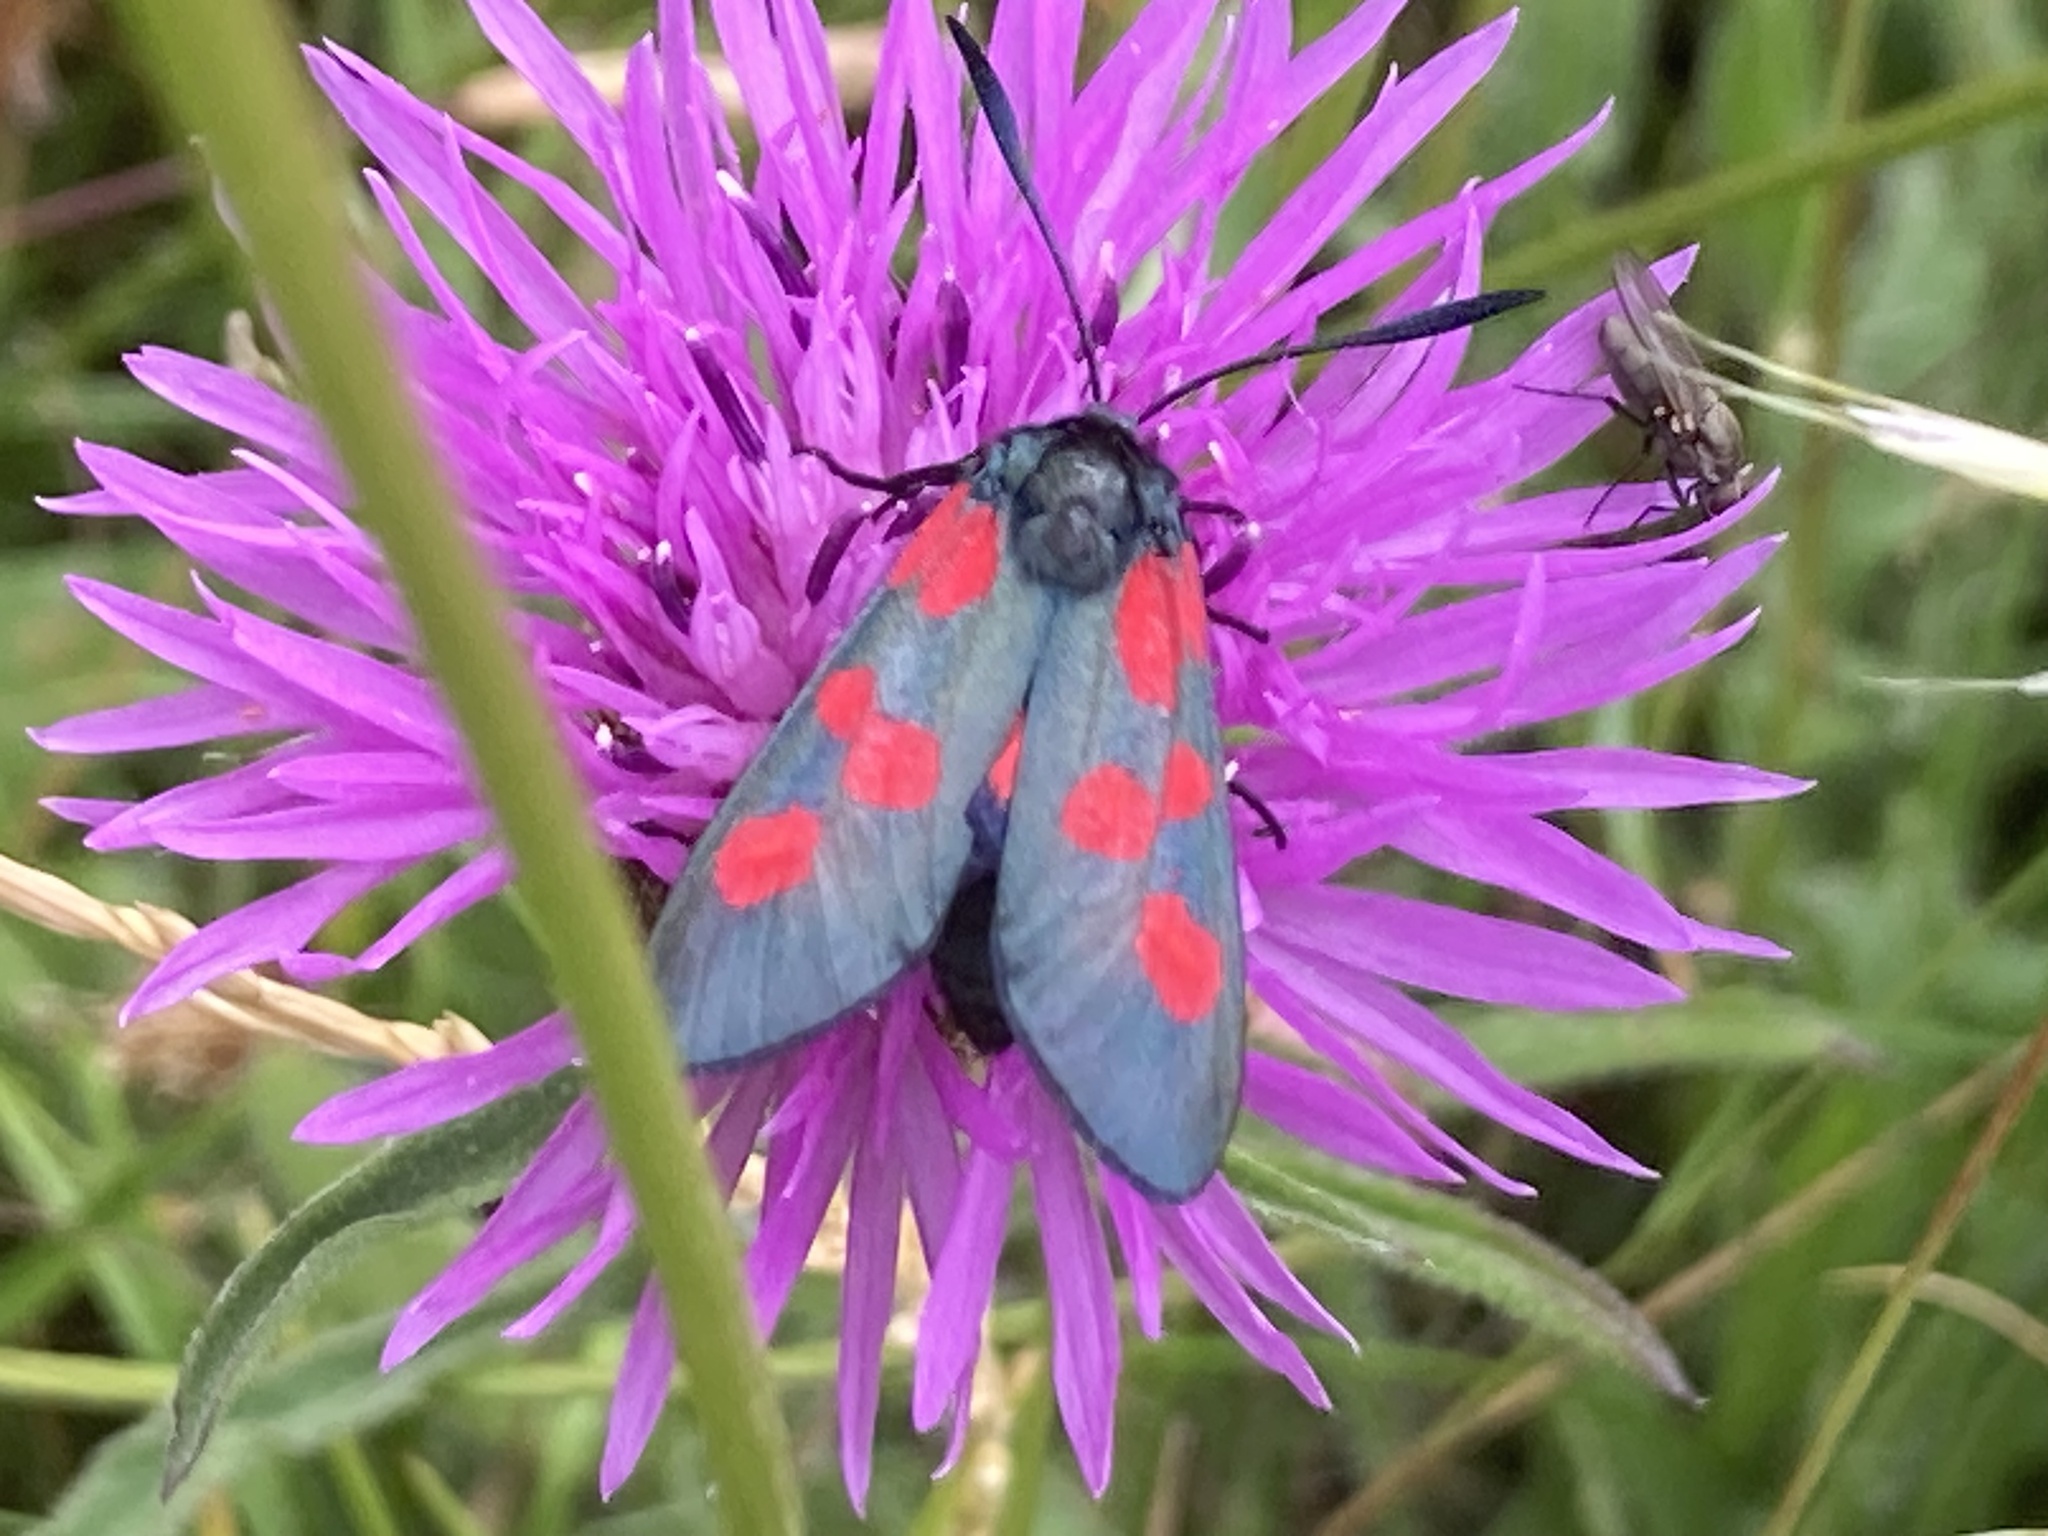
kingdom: Animalia
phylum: Arthropoda
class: Insecta
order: Lepidoptera
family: Zygaenidae
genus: Zygaena
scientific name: Zygaena
